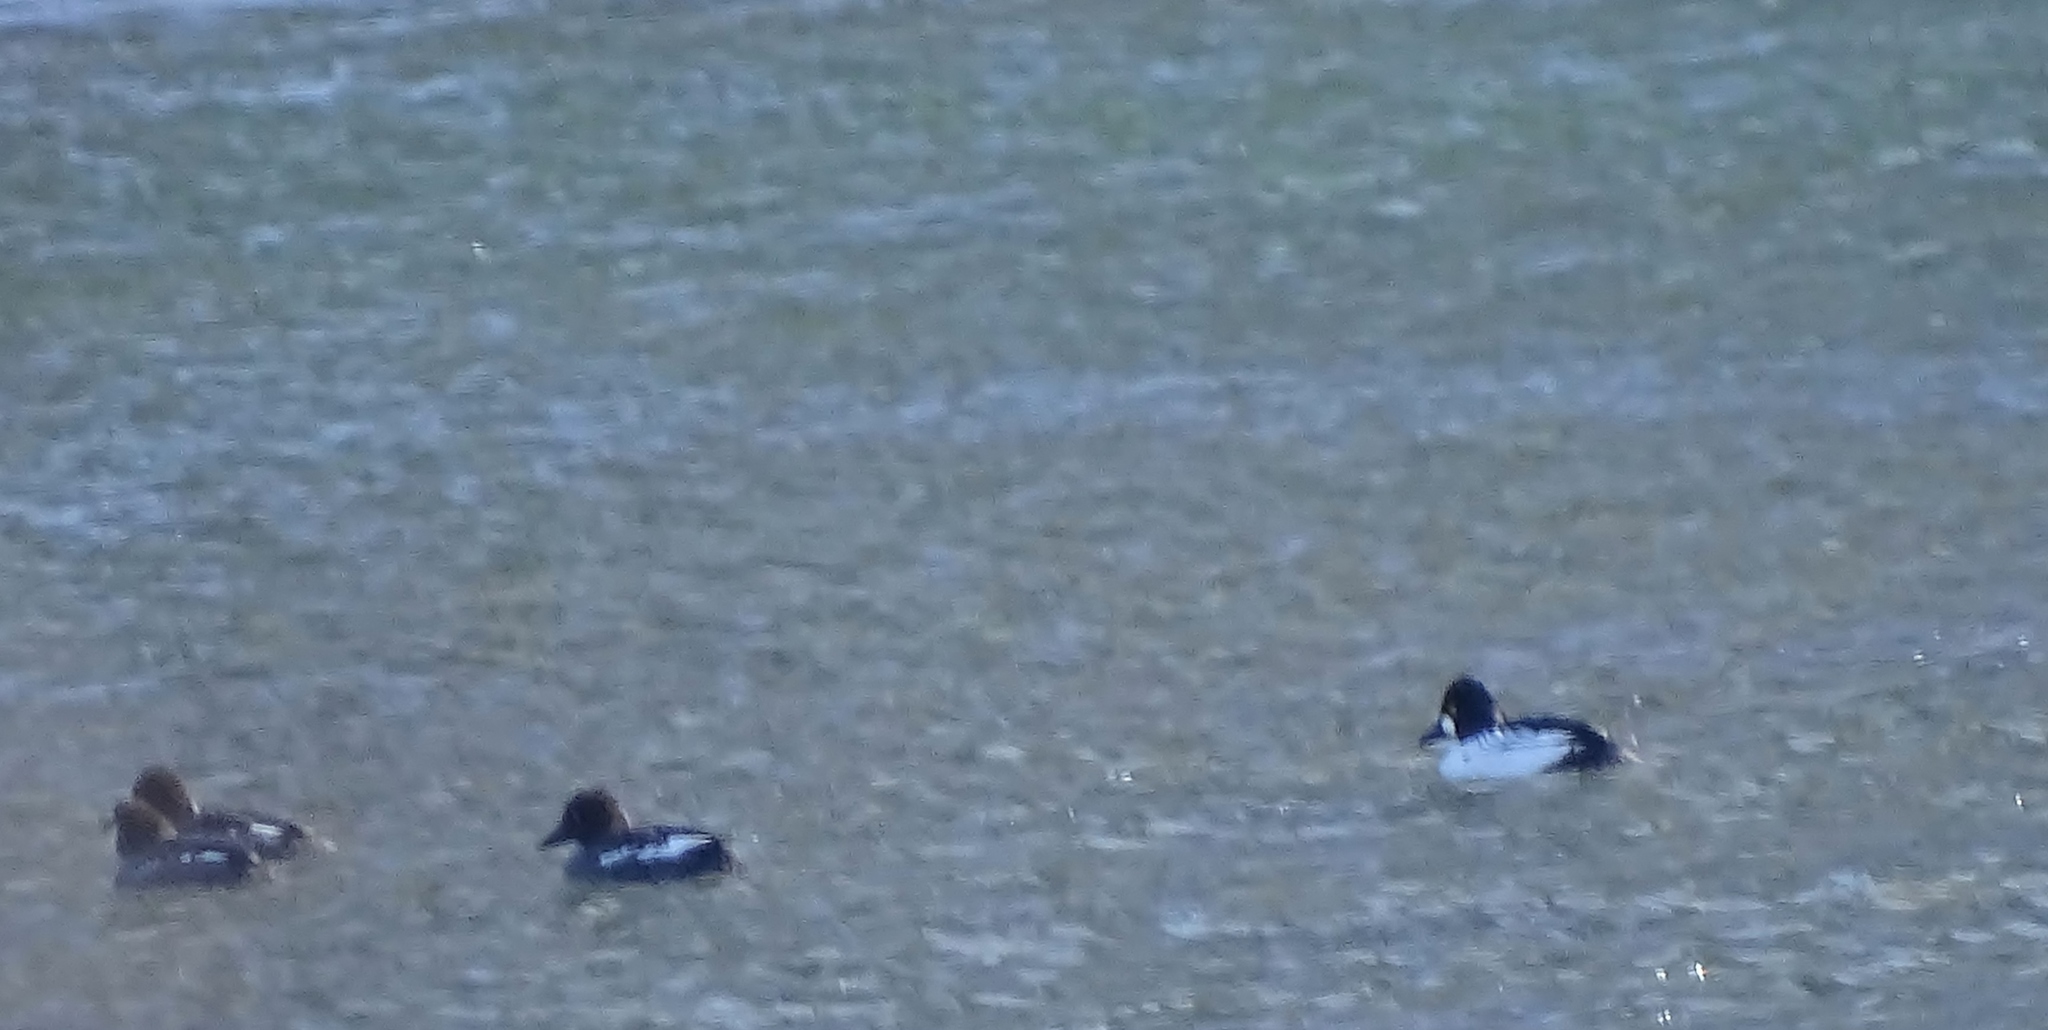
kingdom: Animalia
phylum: Chordata
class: Aves
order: Anseriformes
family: Anatidae
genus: Bucephala
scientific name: Bucephala clangula
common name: Common goldeneye
